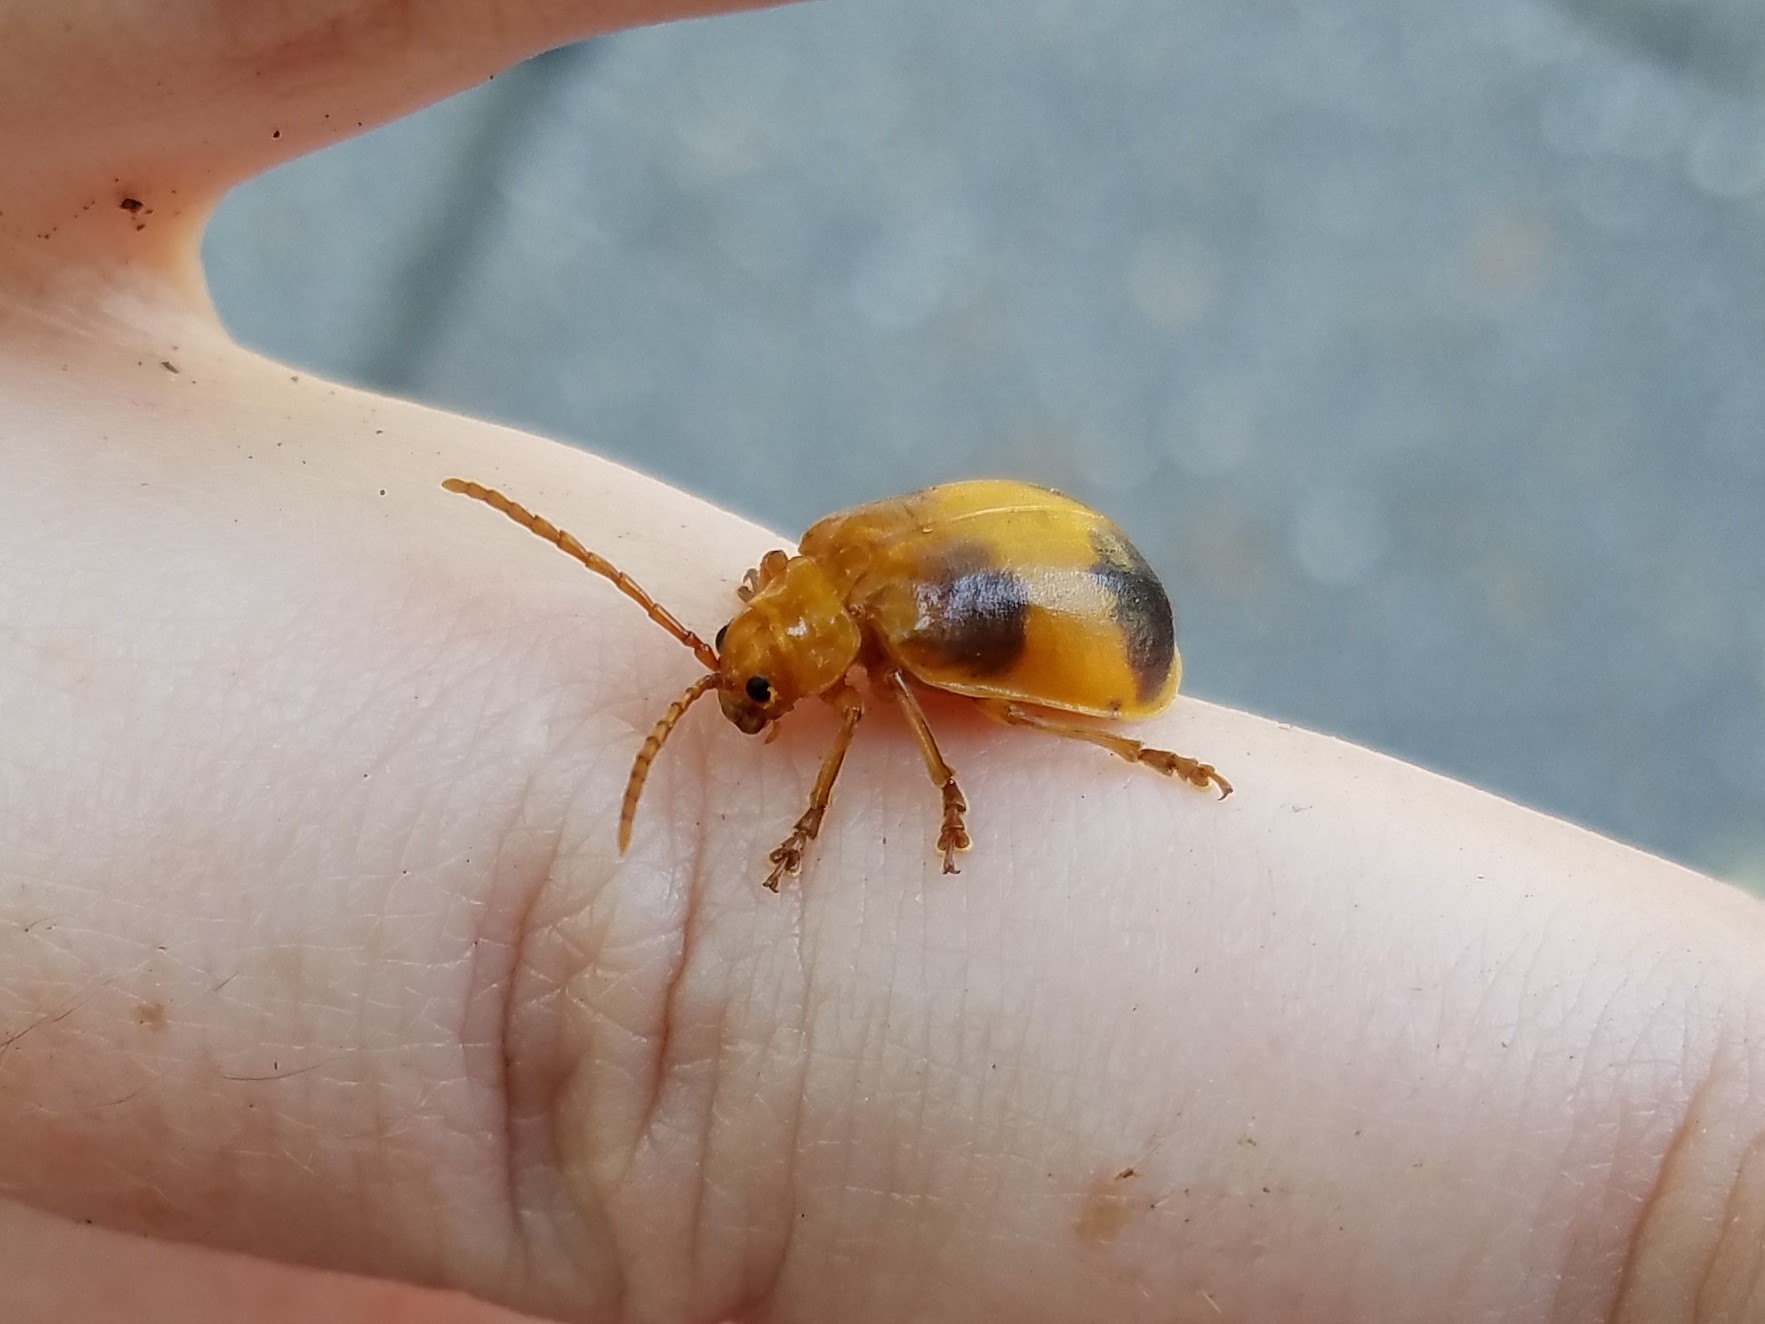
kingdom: Animalia
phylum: Arthropoda
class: Insecta
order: Coleoptera
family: Chrysomelidae
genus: Monocesta
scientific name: Monocesta coryli
